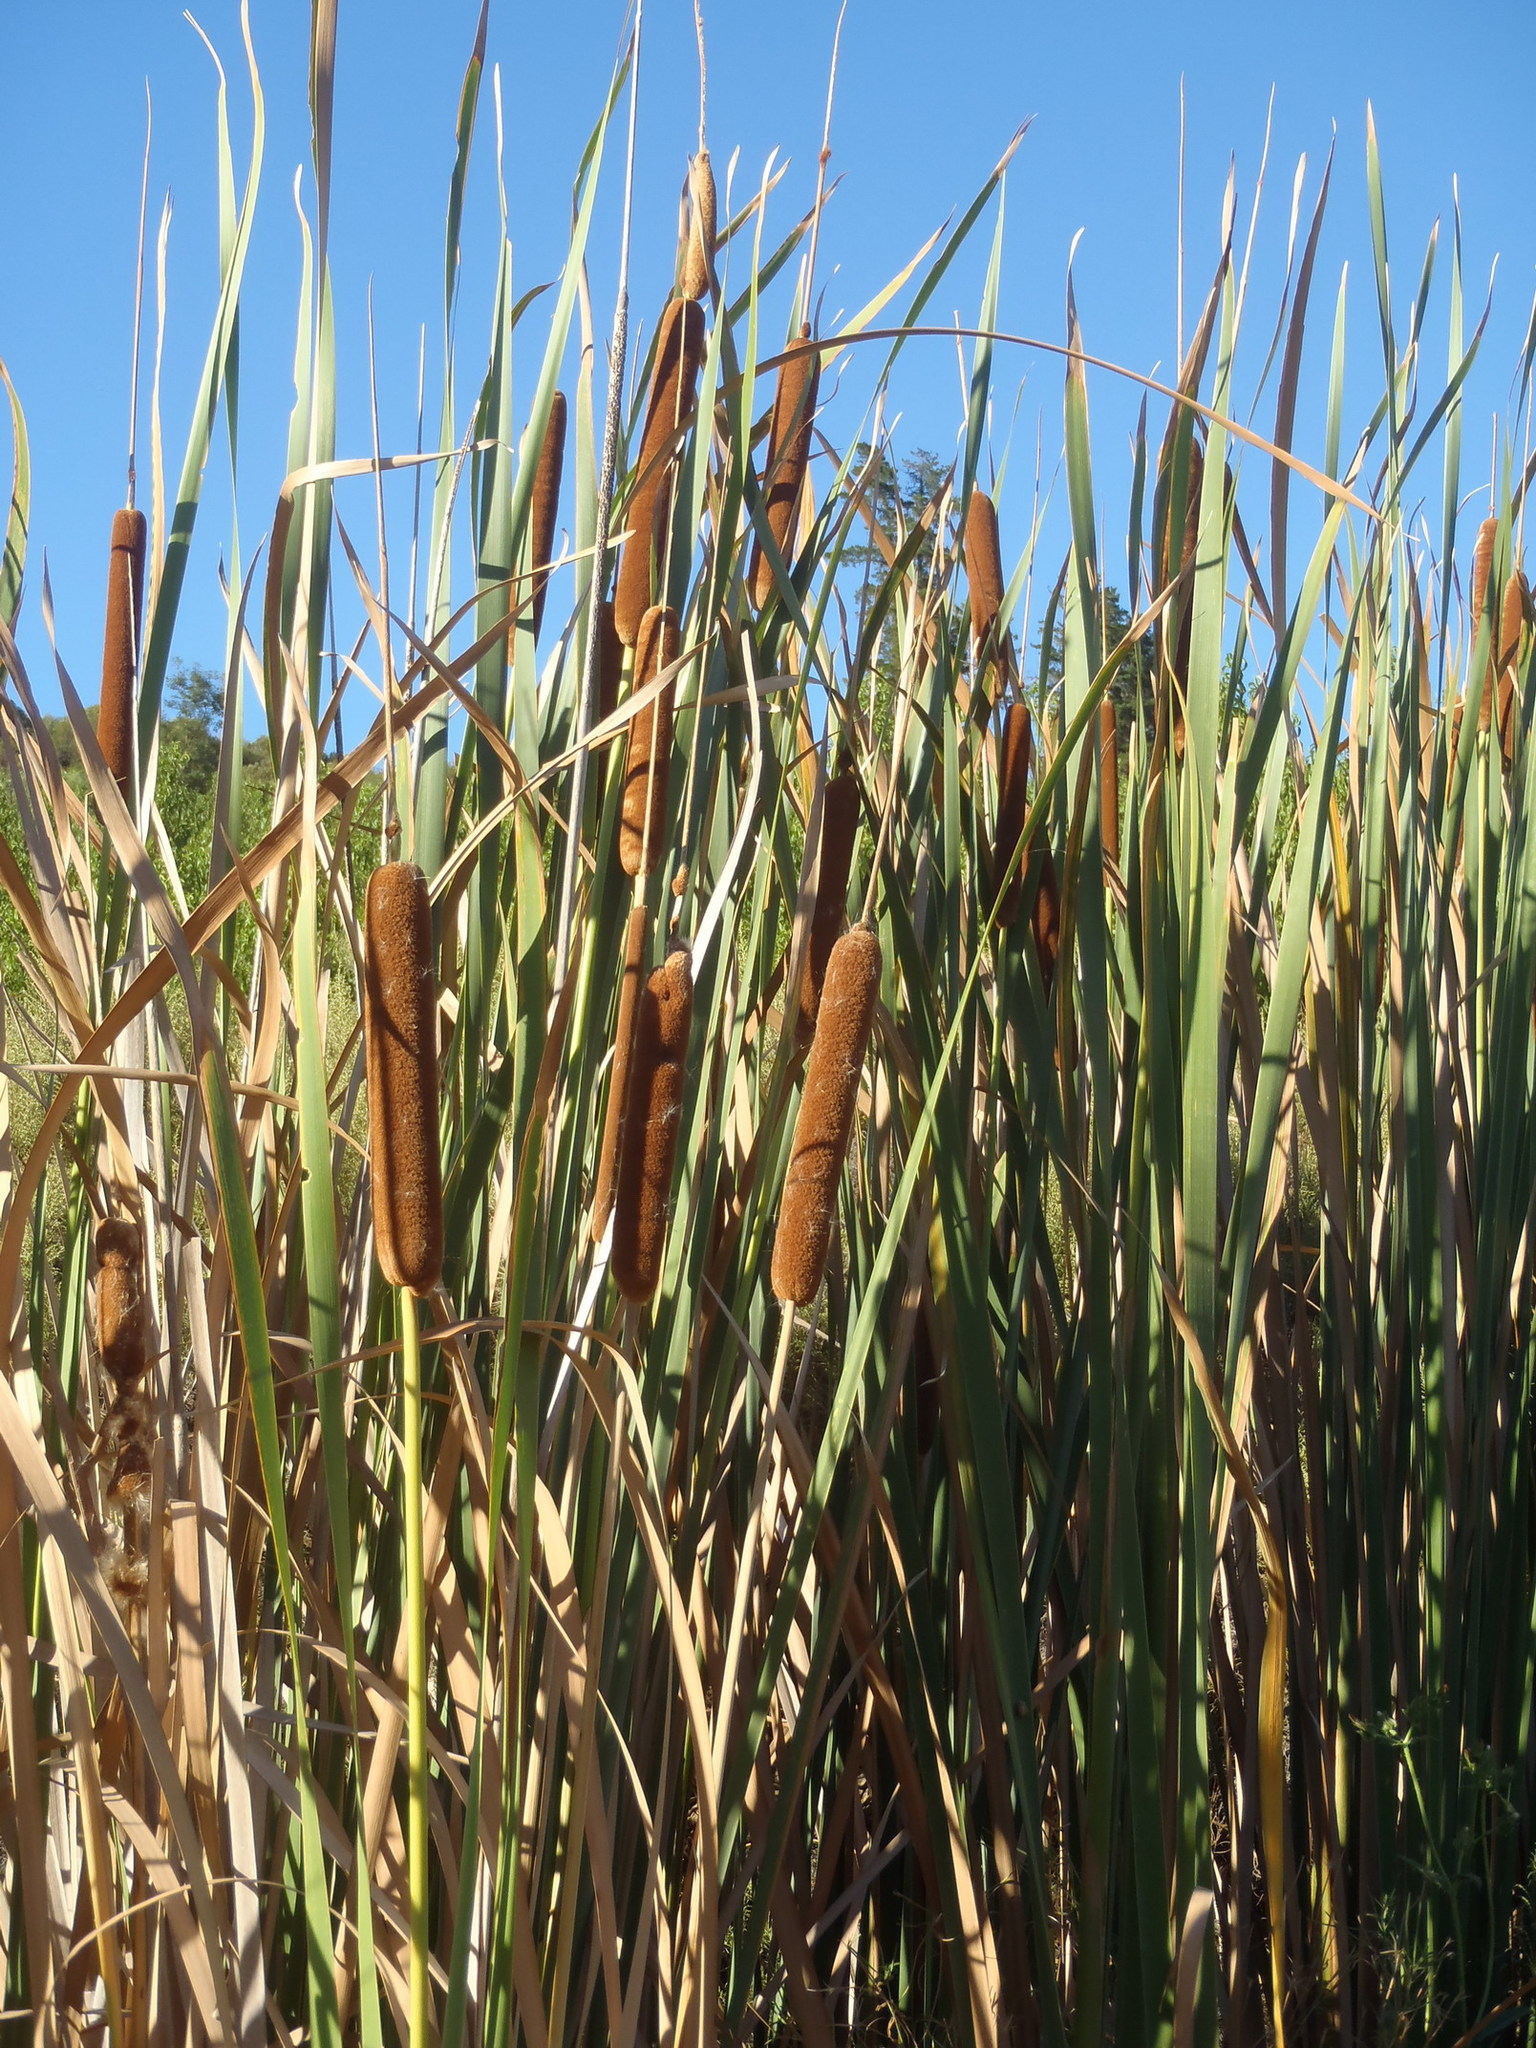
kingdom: Plantae
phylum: Tracheophyta
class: Liliopsida
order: Poales
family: Typhaceae
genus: Typha
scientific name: Typha capensis
